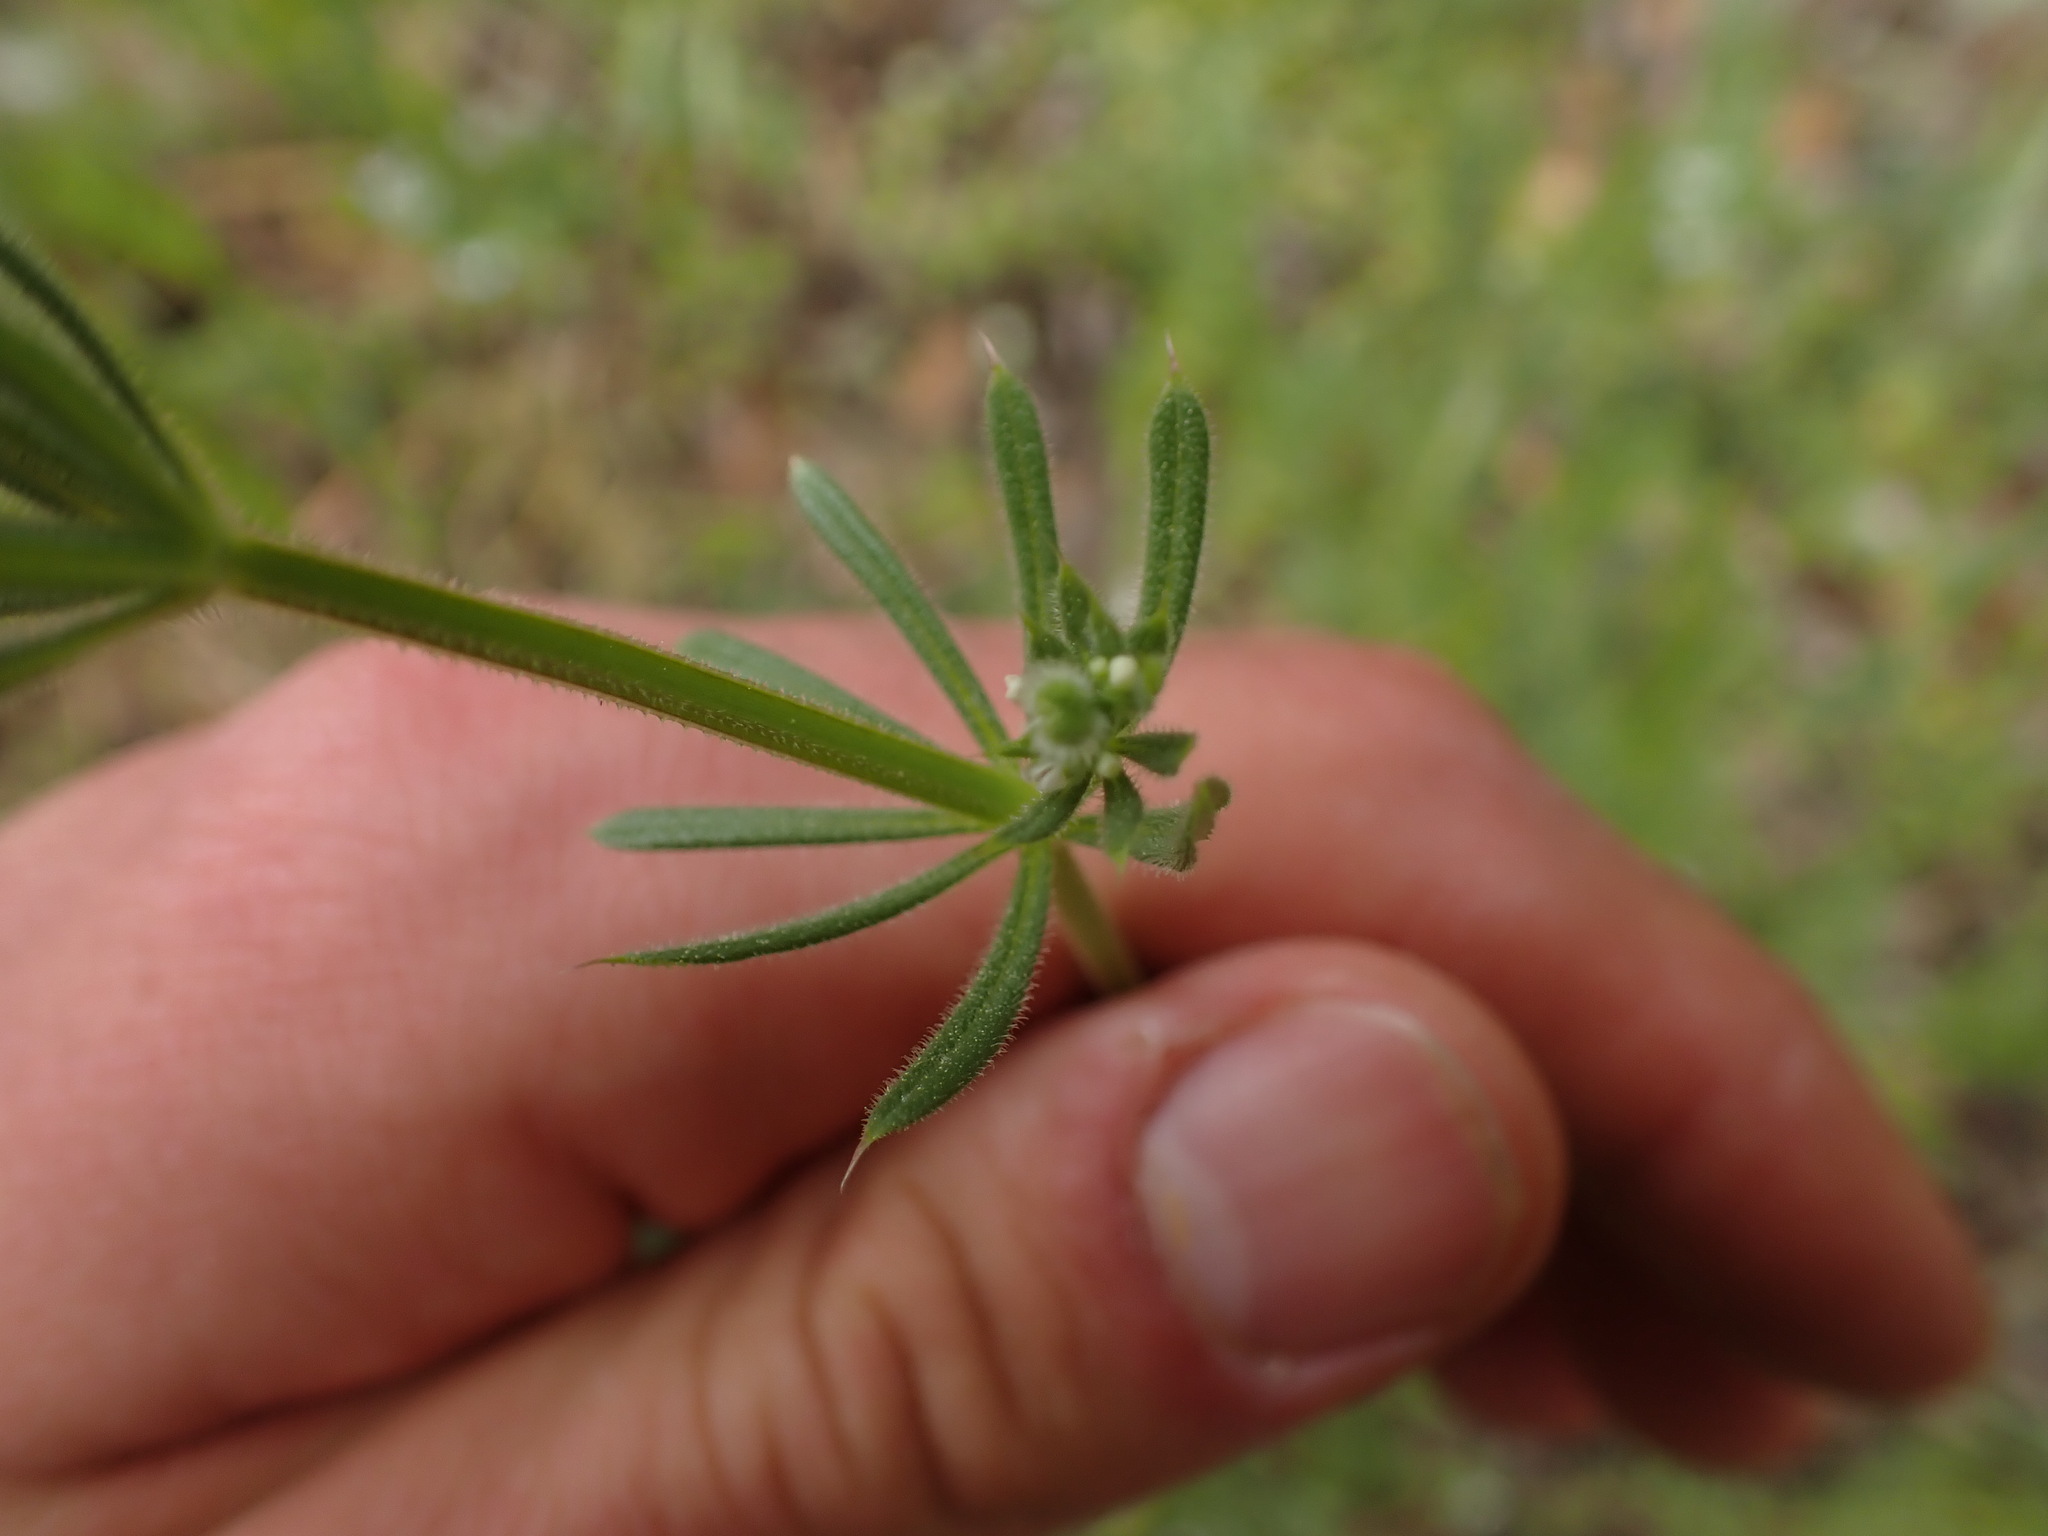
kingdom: Plantae
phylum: Tracheophyta
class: Magnoliopsida
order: Gentianales
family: Rubiaceae
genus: Galium
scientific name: Galium aparine
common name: Cleavers
